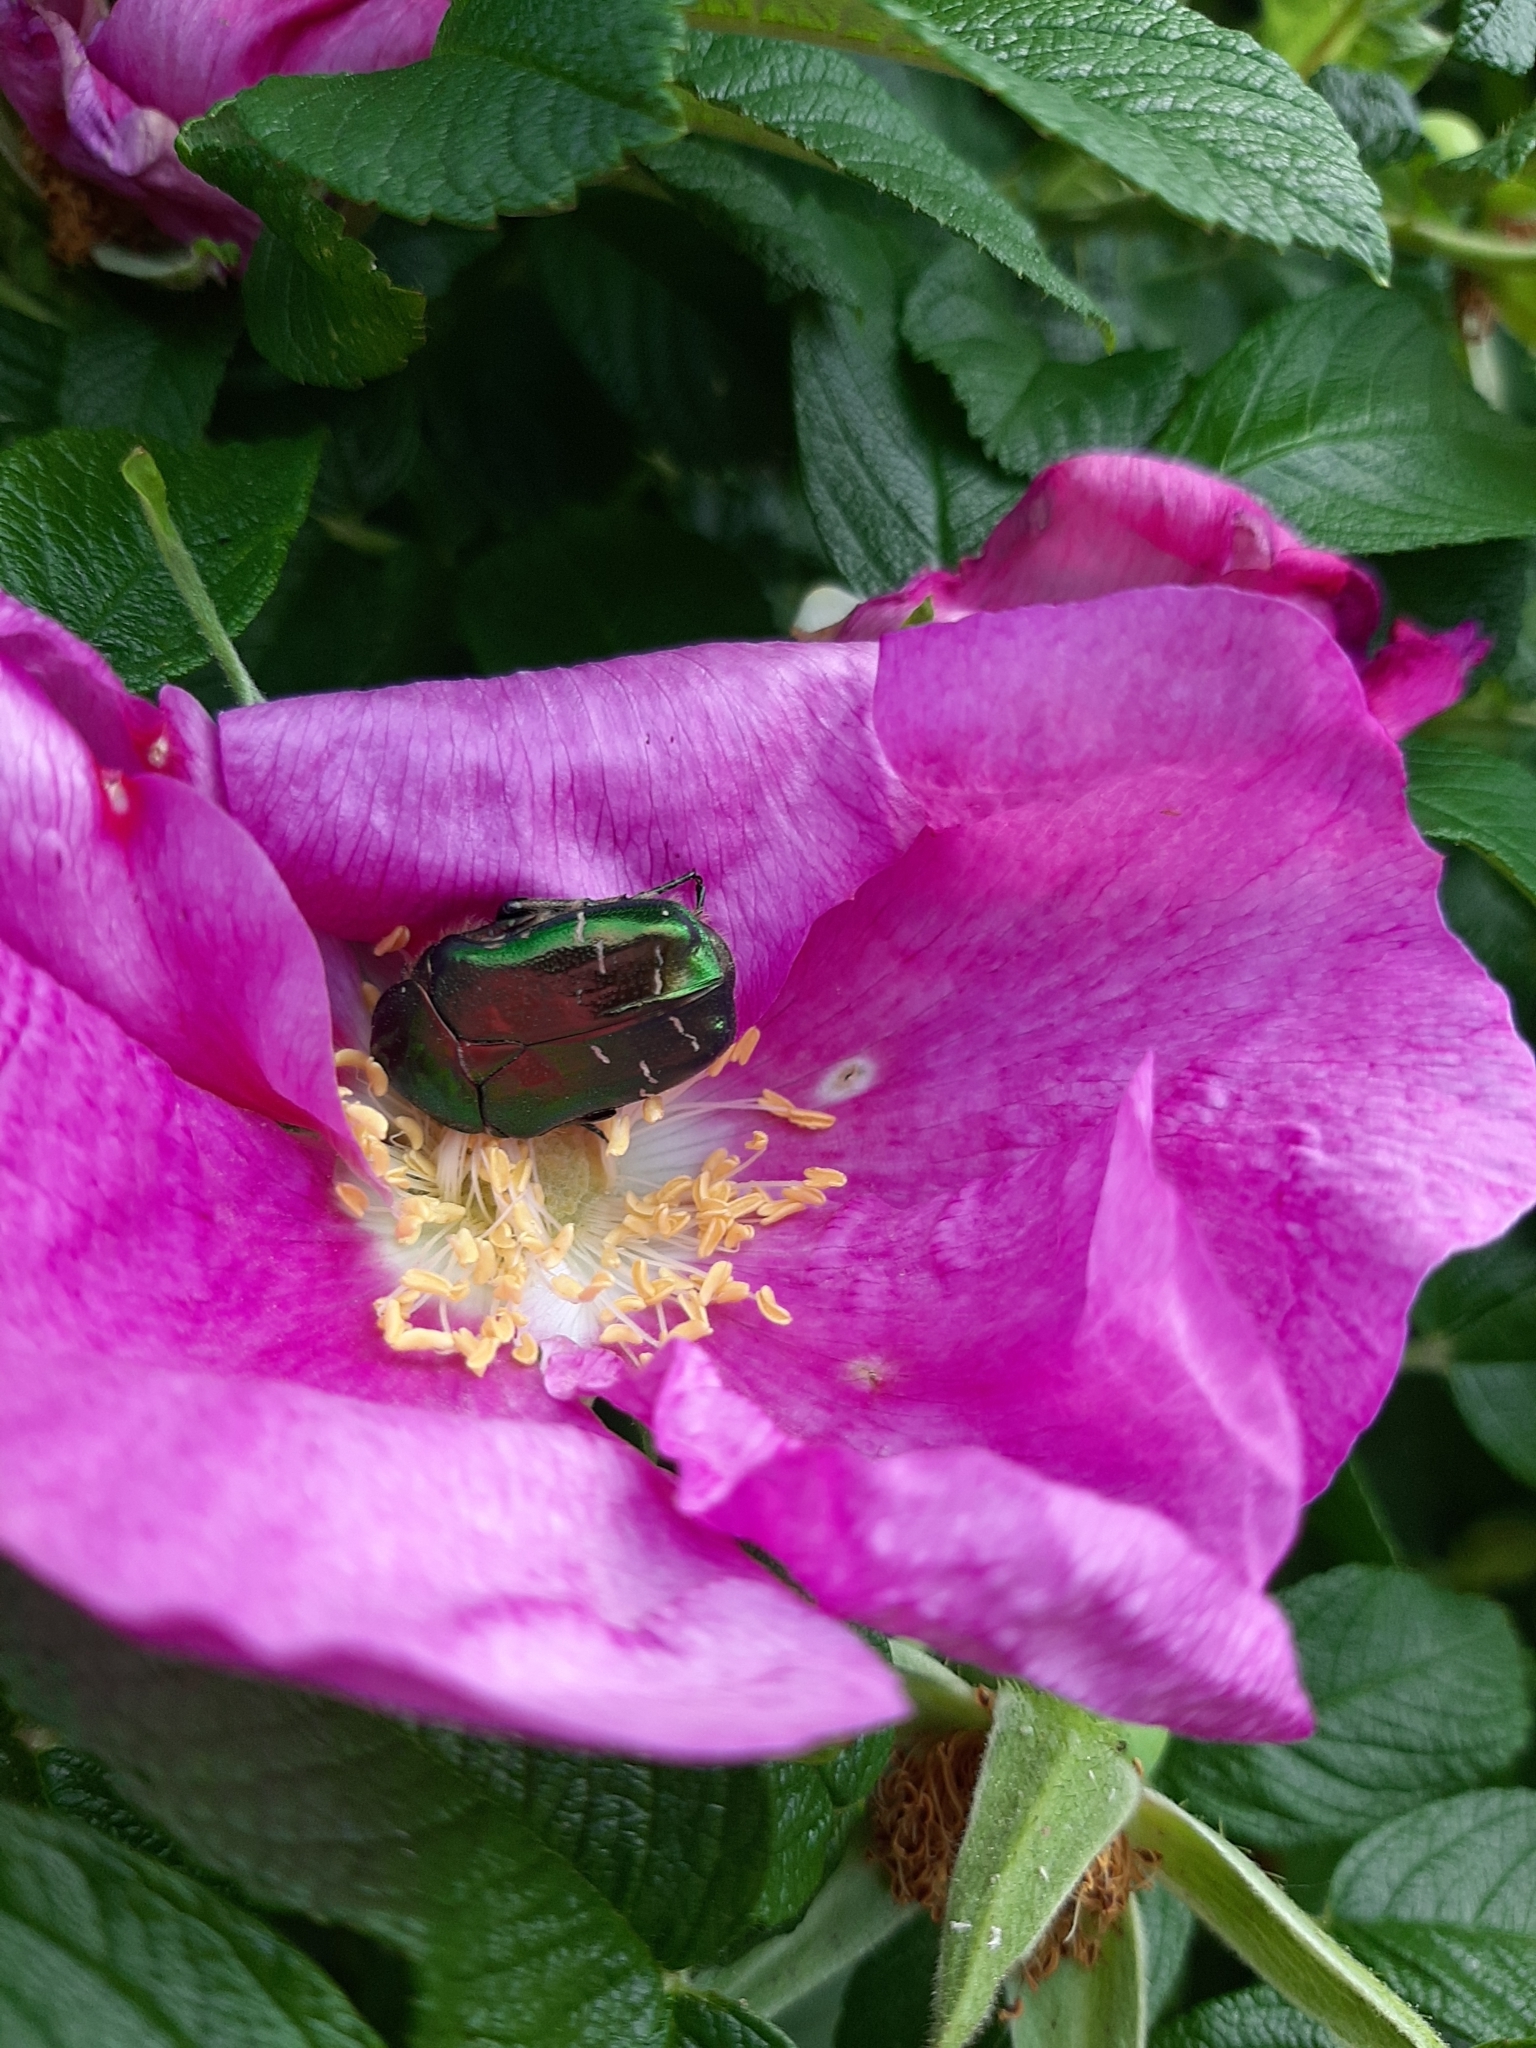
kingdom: Animalia
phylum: Arthropoda
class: Insecta
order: Coleoptera
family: Scarabaeidae
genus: Cetonia
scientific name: Cetonia aurata
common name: Rose chafer
